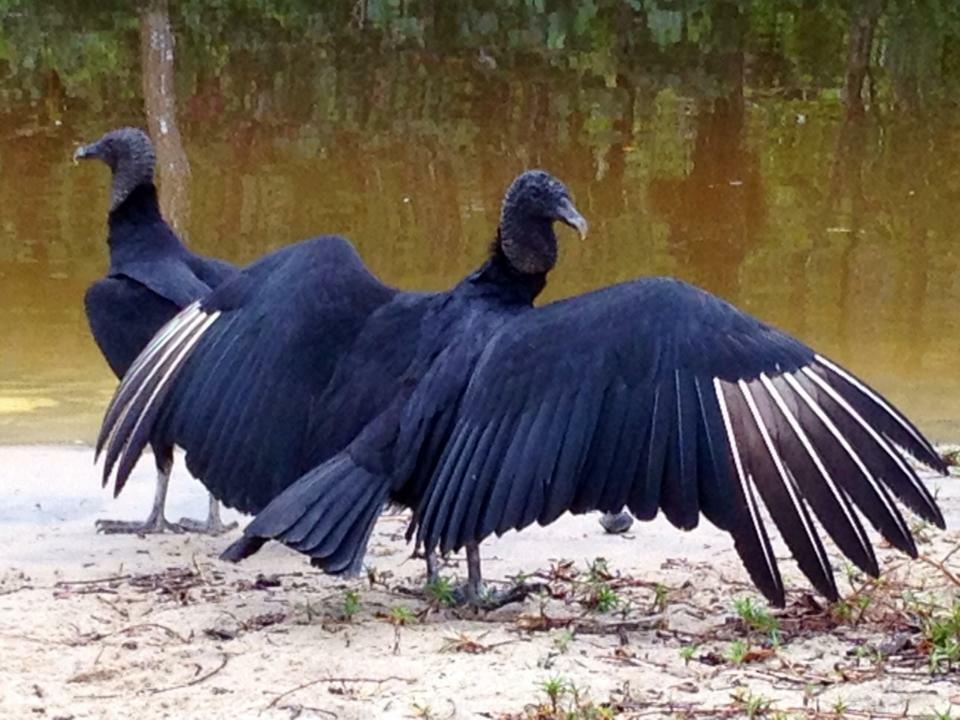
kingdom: Animalia
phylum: Chordata
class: Aves
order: Accipitriformes
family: Cathartidae
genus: Coragyps
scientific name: Coragyps atratus
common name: Black vulture
